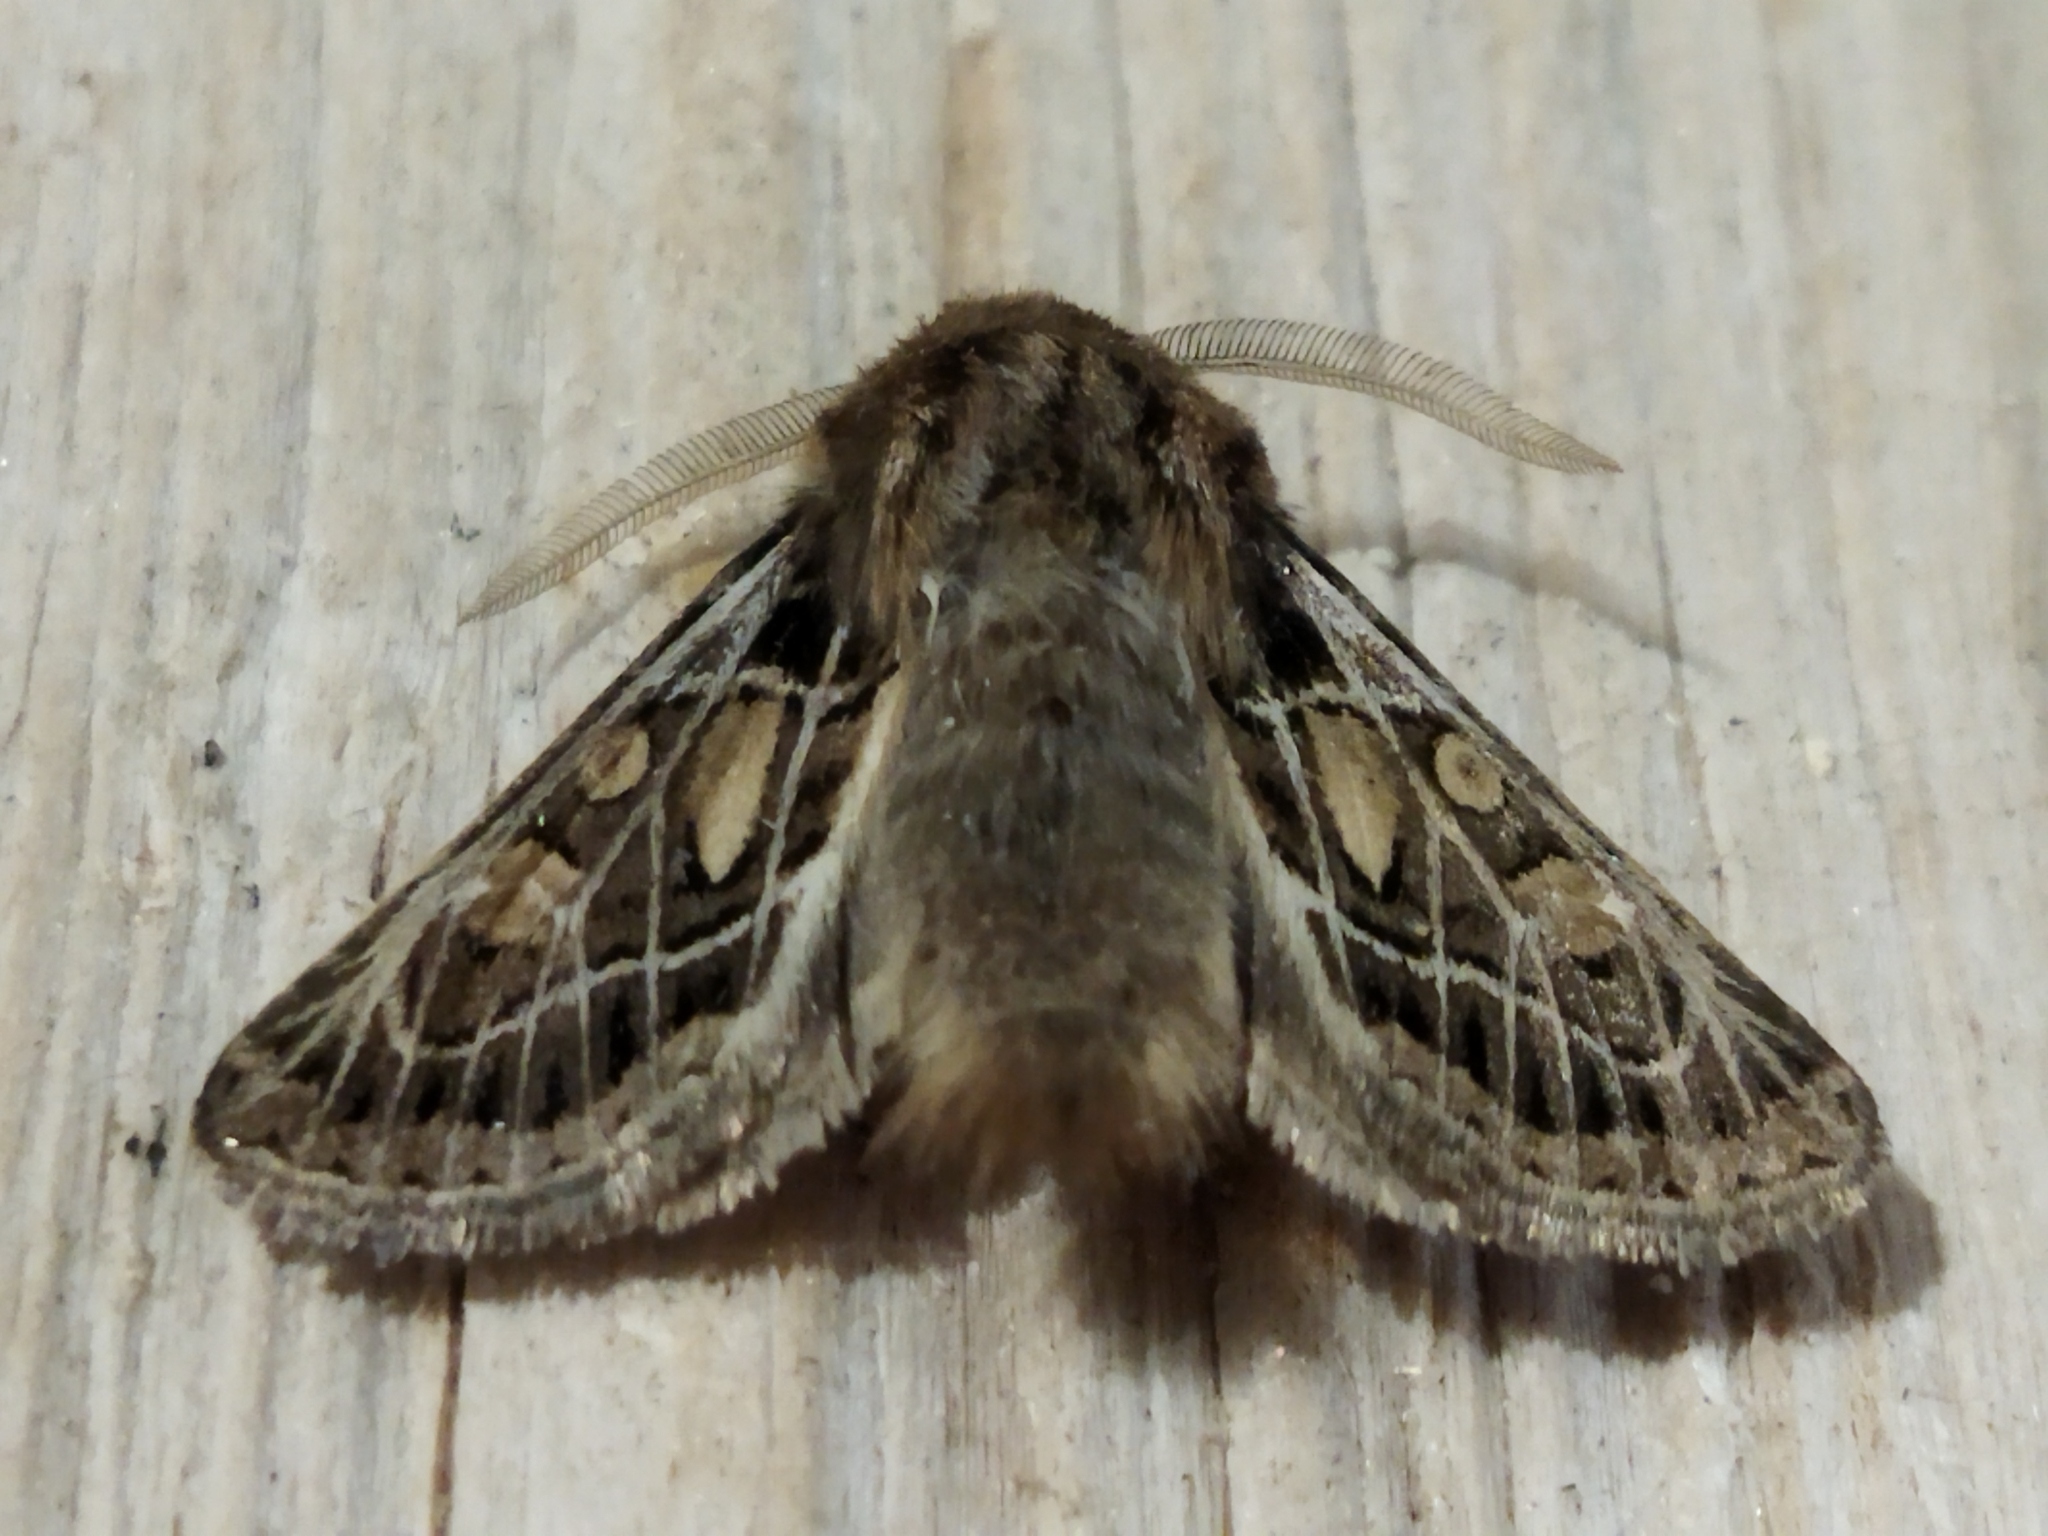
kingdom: Animalia
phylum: Arthropoda
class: Insecta
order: Lepidoptera
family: Noctuidae
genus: Ulochlaena
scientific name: Ulochlaena hirta
